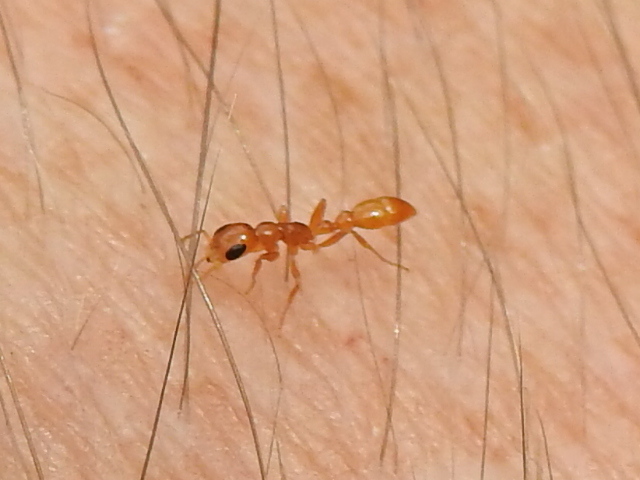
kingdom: Animalia
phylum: Arthropoda
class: Insecta
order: Hymenoptera
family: Formicidae
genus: Pseudomyrmex
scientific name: Pseudomyrmex pallidus
